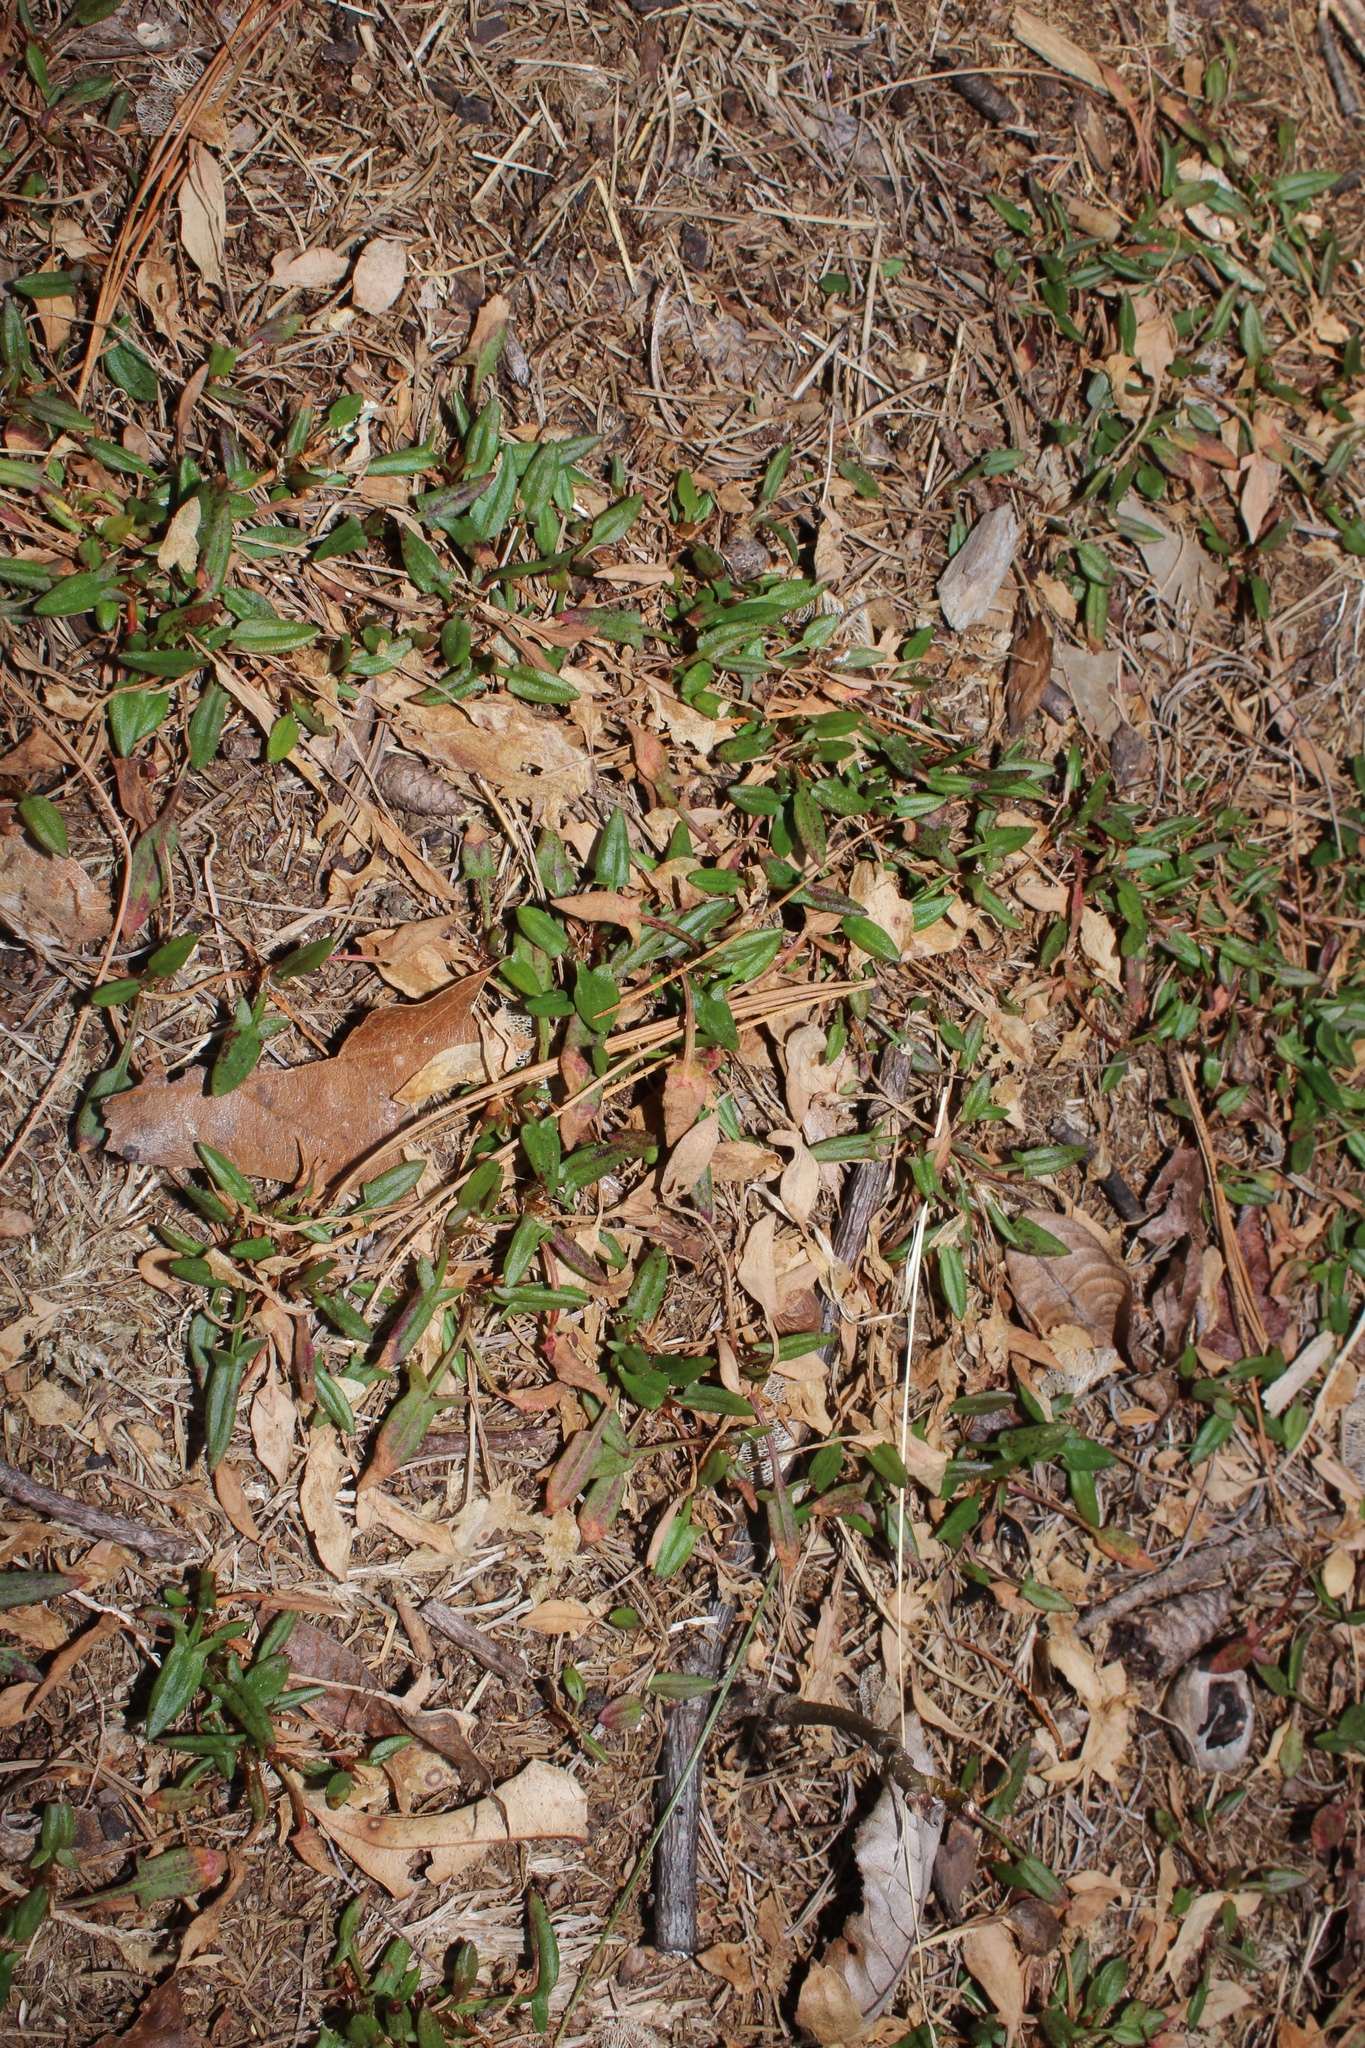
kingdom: Plantae
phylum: Tracheophyta
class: Magnoliopsida
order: Caryophyllales
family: Polygonaceae
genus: Rumex
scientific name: Rumex acetosella
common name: Common sheep sorrel
